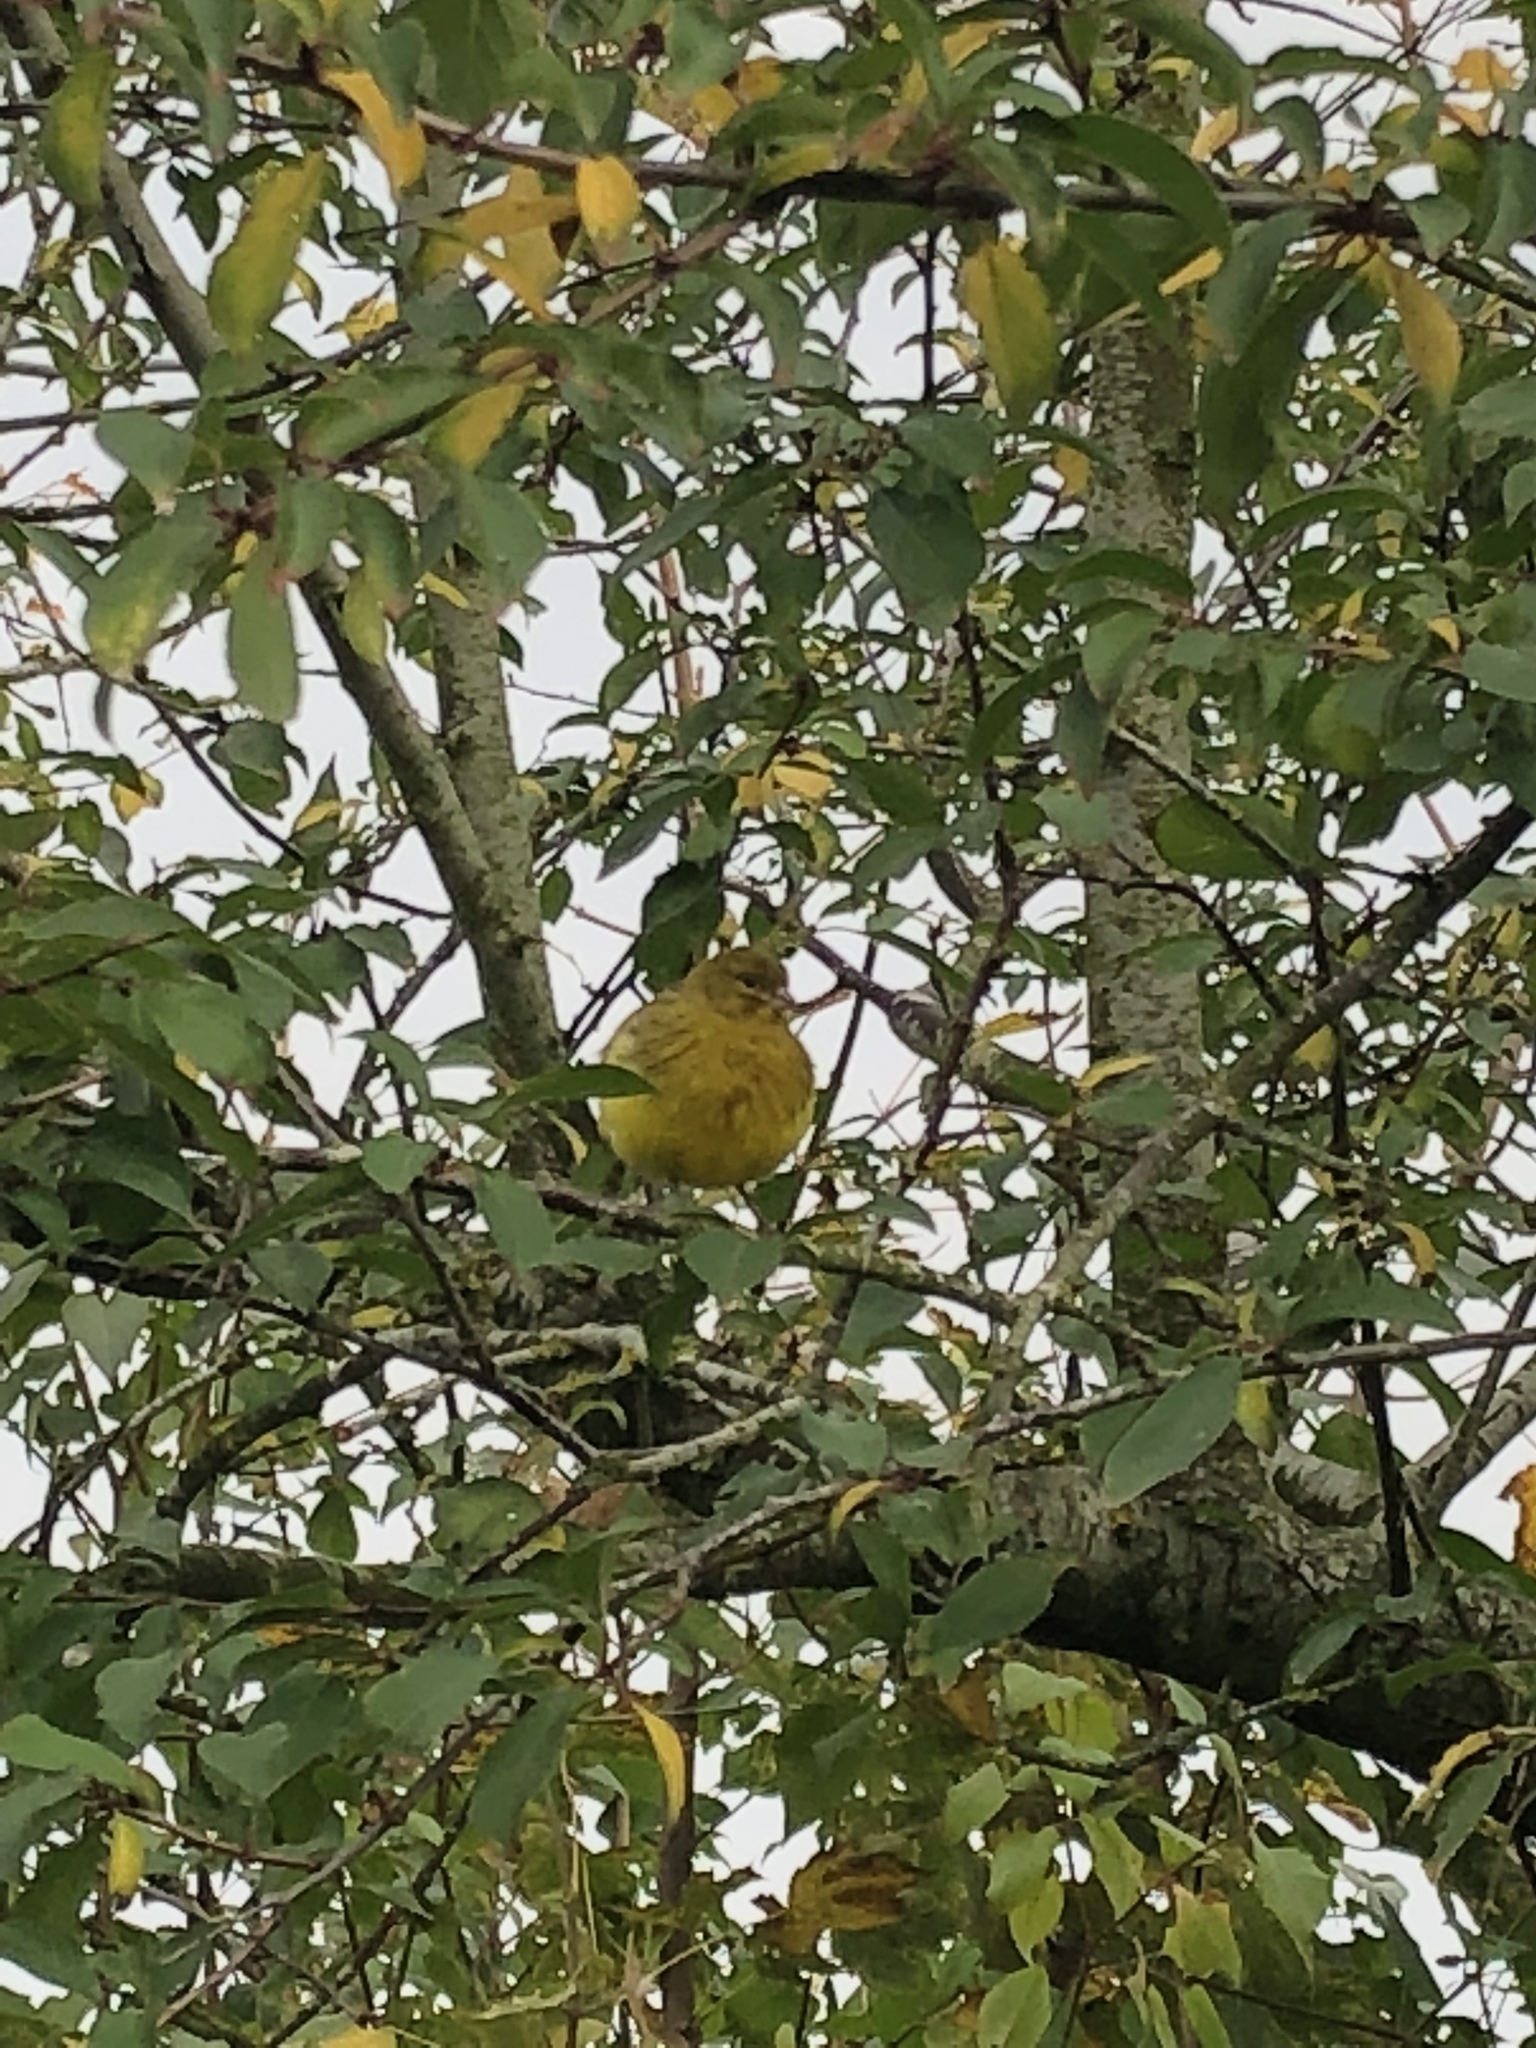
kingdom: Animalia
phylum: Chordata
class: Aves
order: Passeriformes
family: Emberizidae
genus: Emberiza
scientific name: Emberiza citrinella
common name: Yellowhammer
